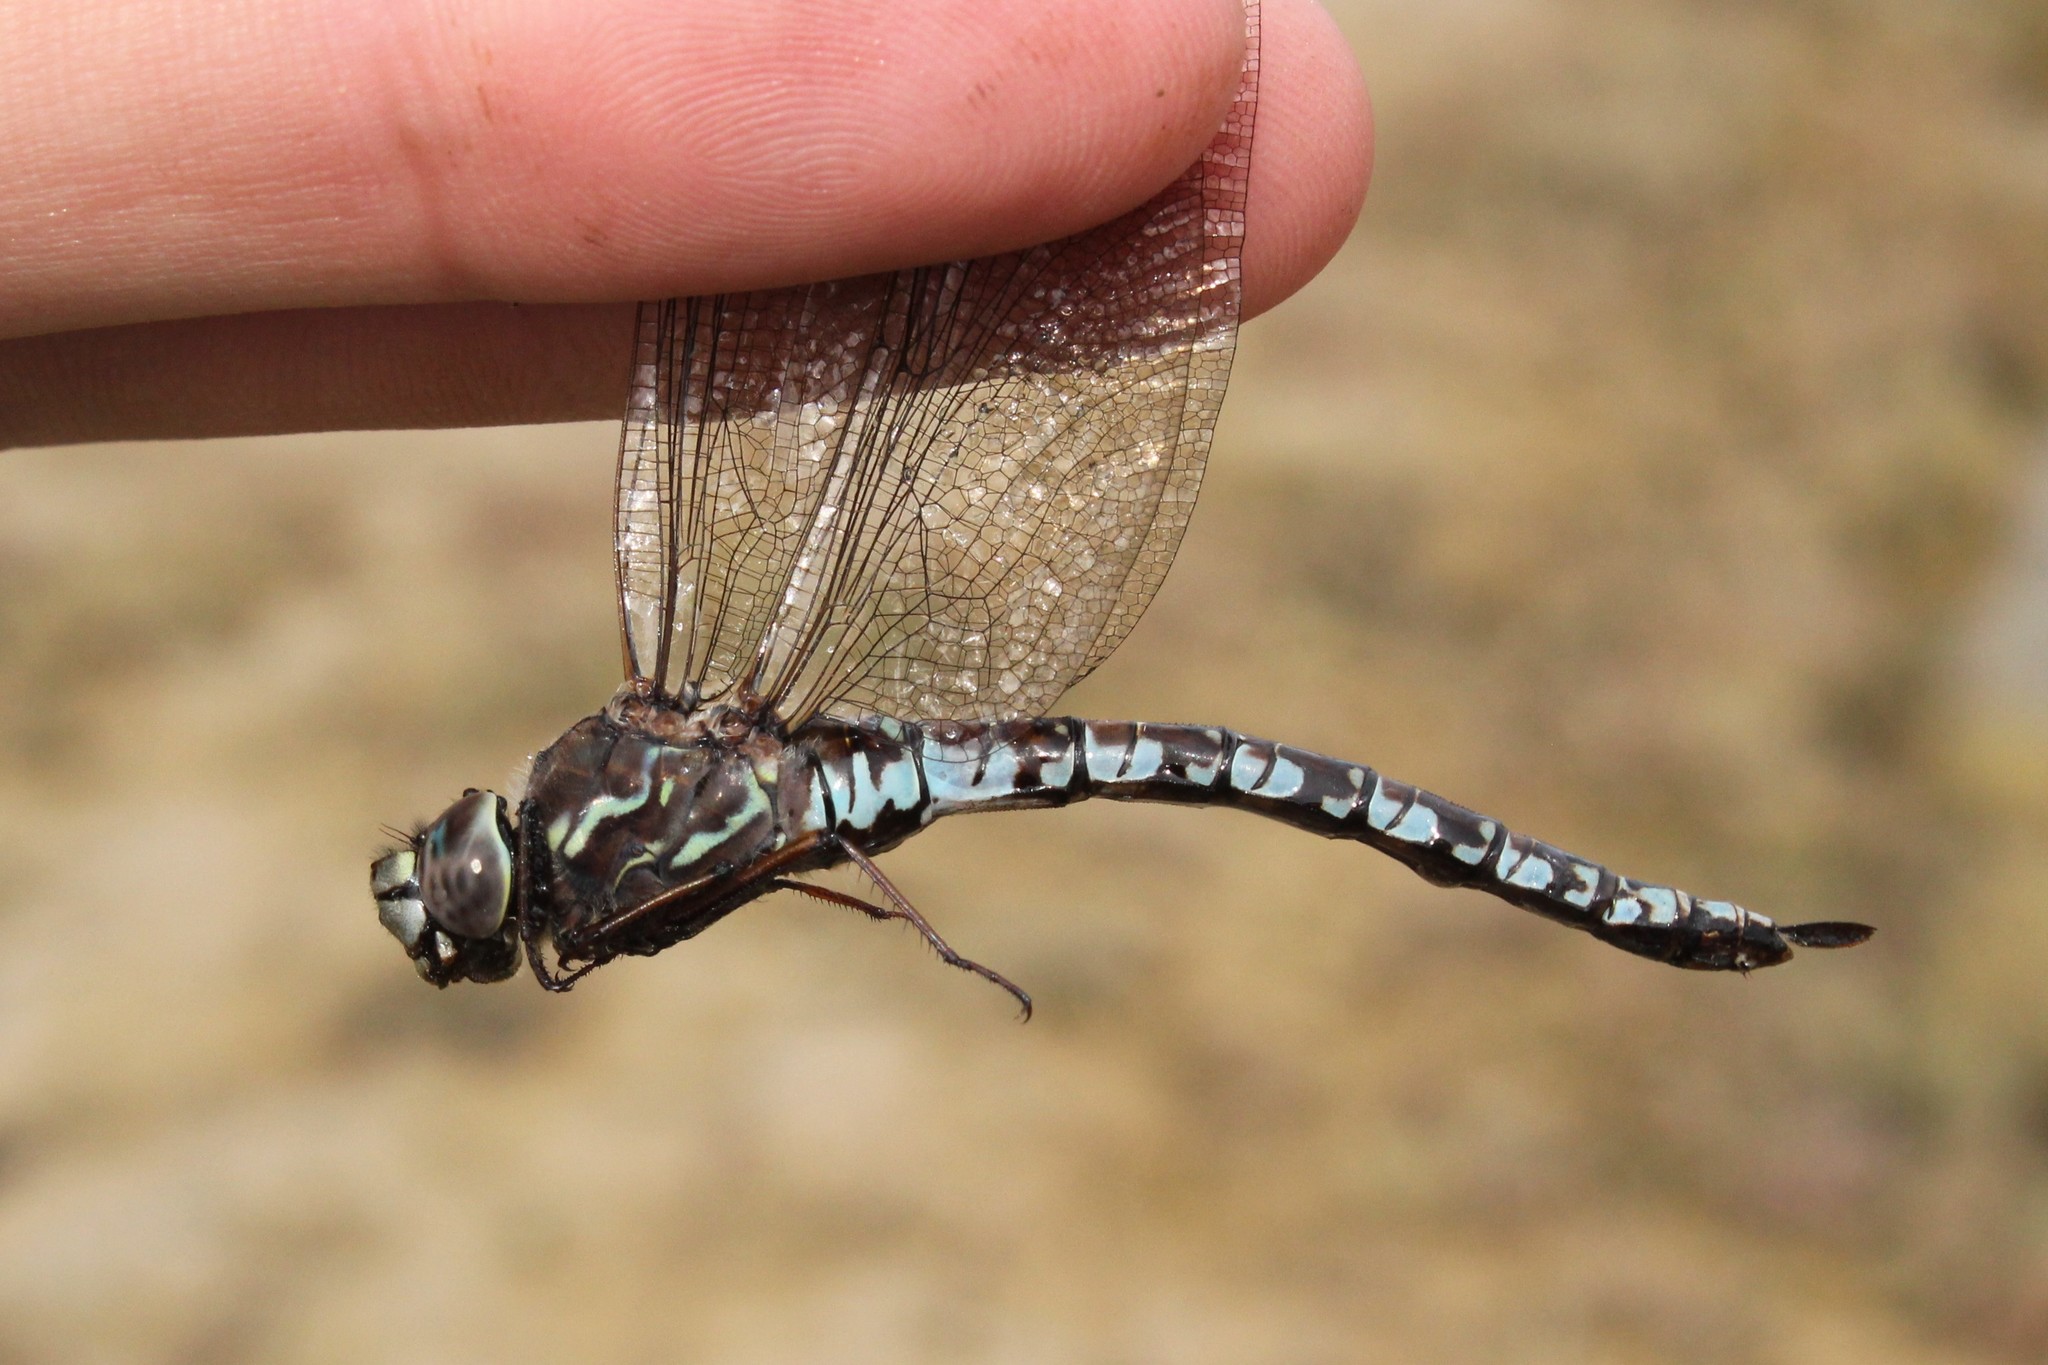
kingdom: Animalia
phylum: Arthropoda
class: Insecta
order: Odonata
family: Aeshnidae
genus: Aeshna
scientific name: Aeshna sitchensis
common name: Zigzag darner
